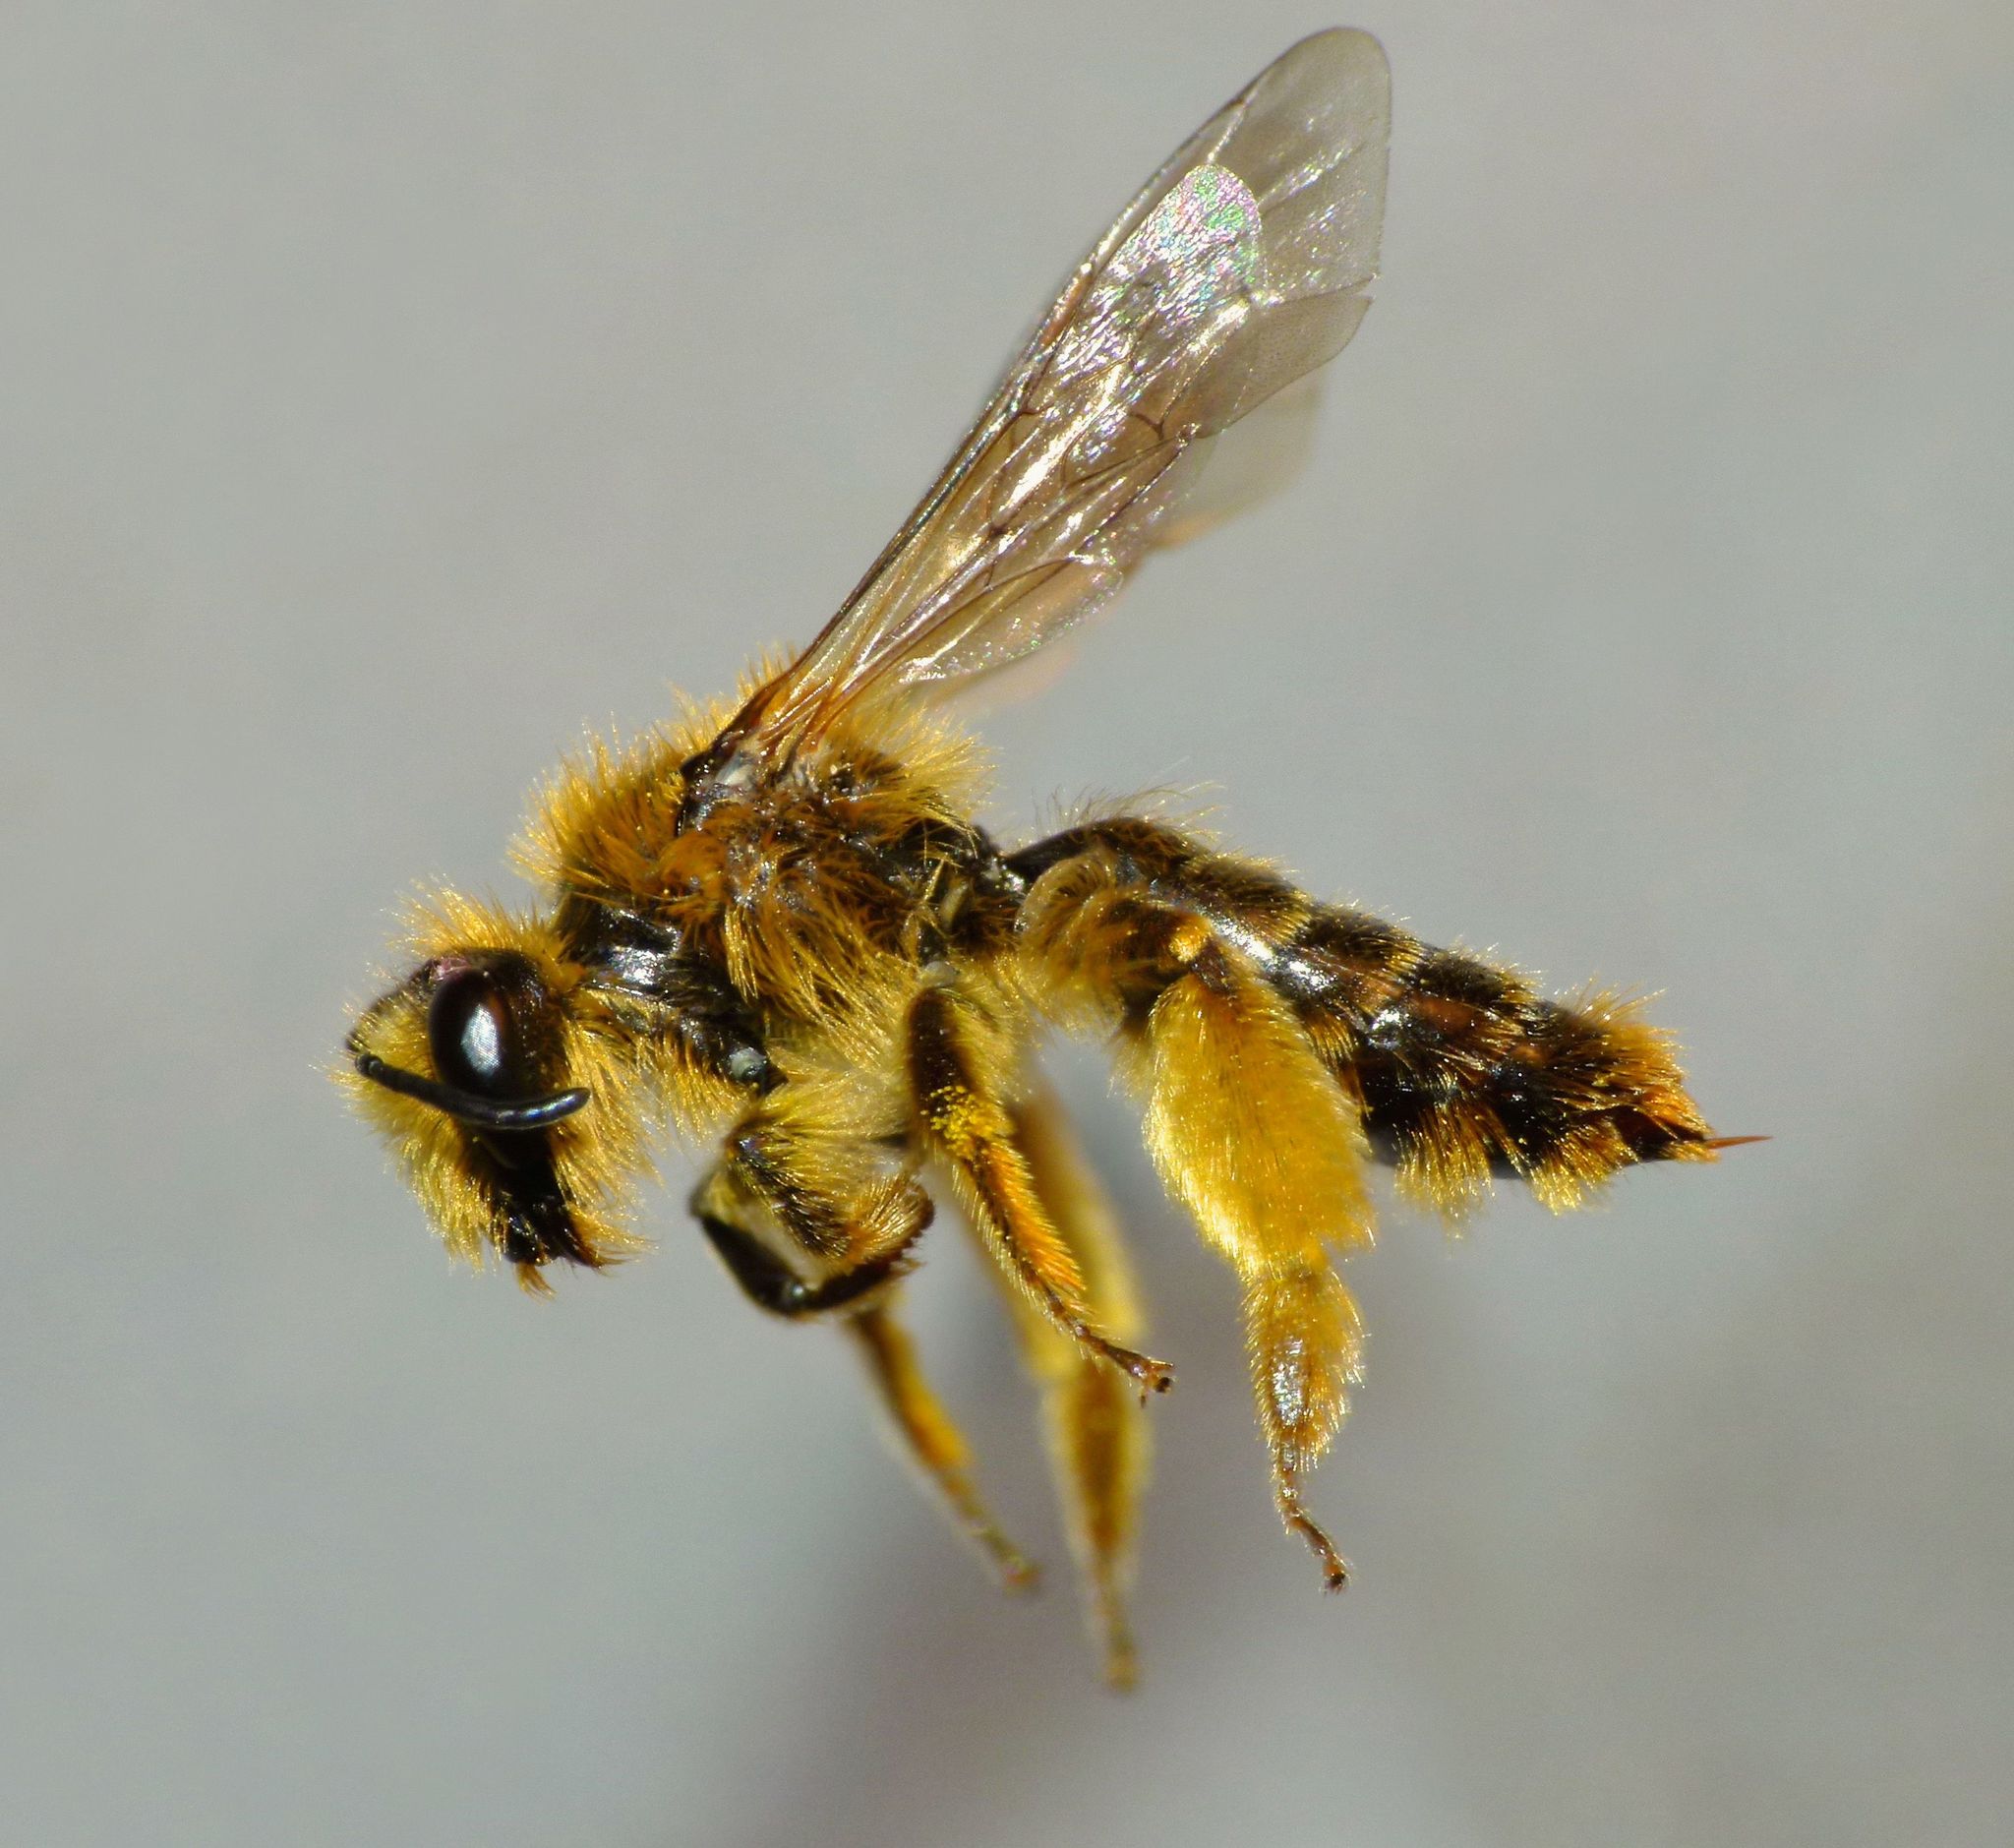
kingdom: Animalia
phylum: Arthropoda
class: Insecta
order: Hymenoptera
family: Colletidae
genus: Leioproctus
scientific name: Leioproctus fulvescens
